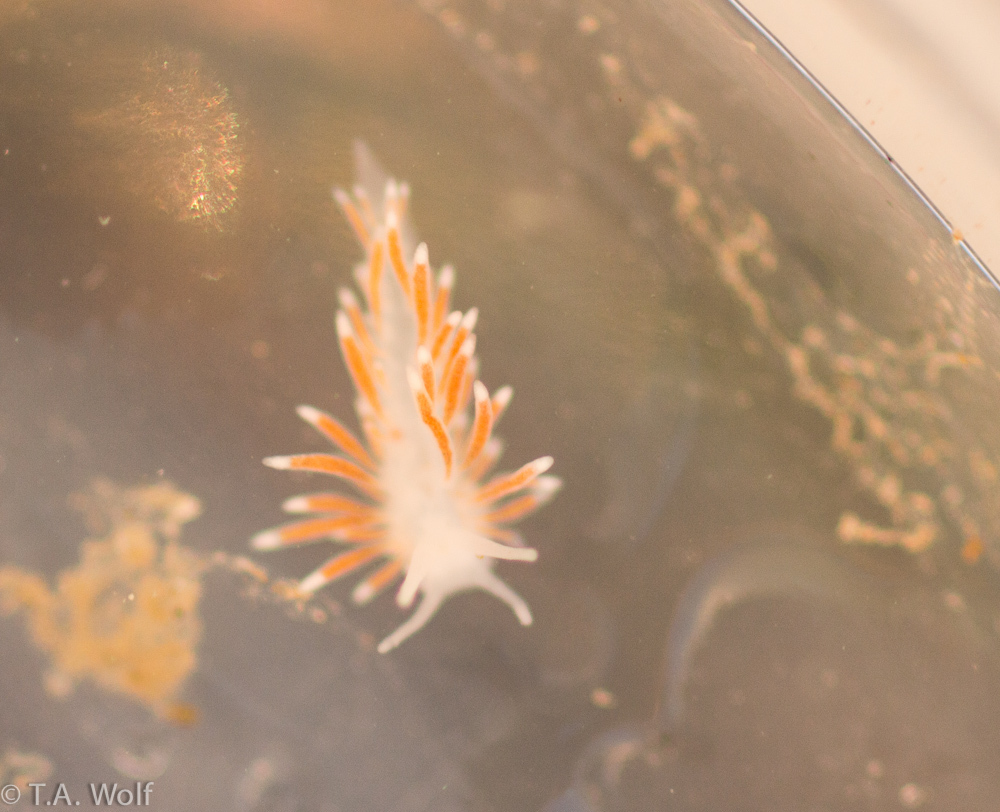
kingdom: Animalia
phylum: Mollusca
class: Gastropoda
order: Nudibranchia
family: Cuthonidae
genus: Cuthona
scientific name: Cuthona divae
